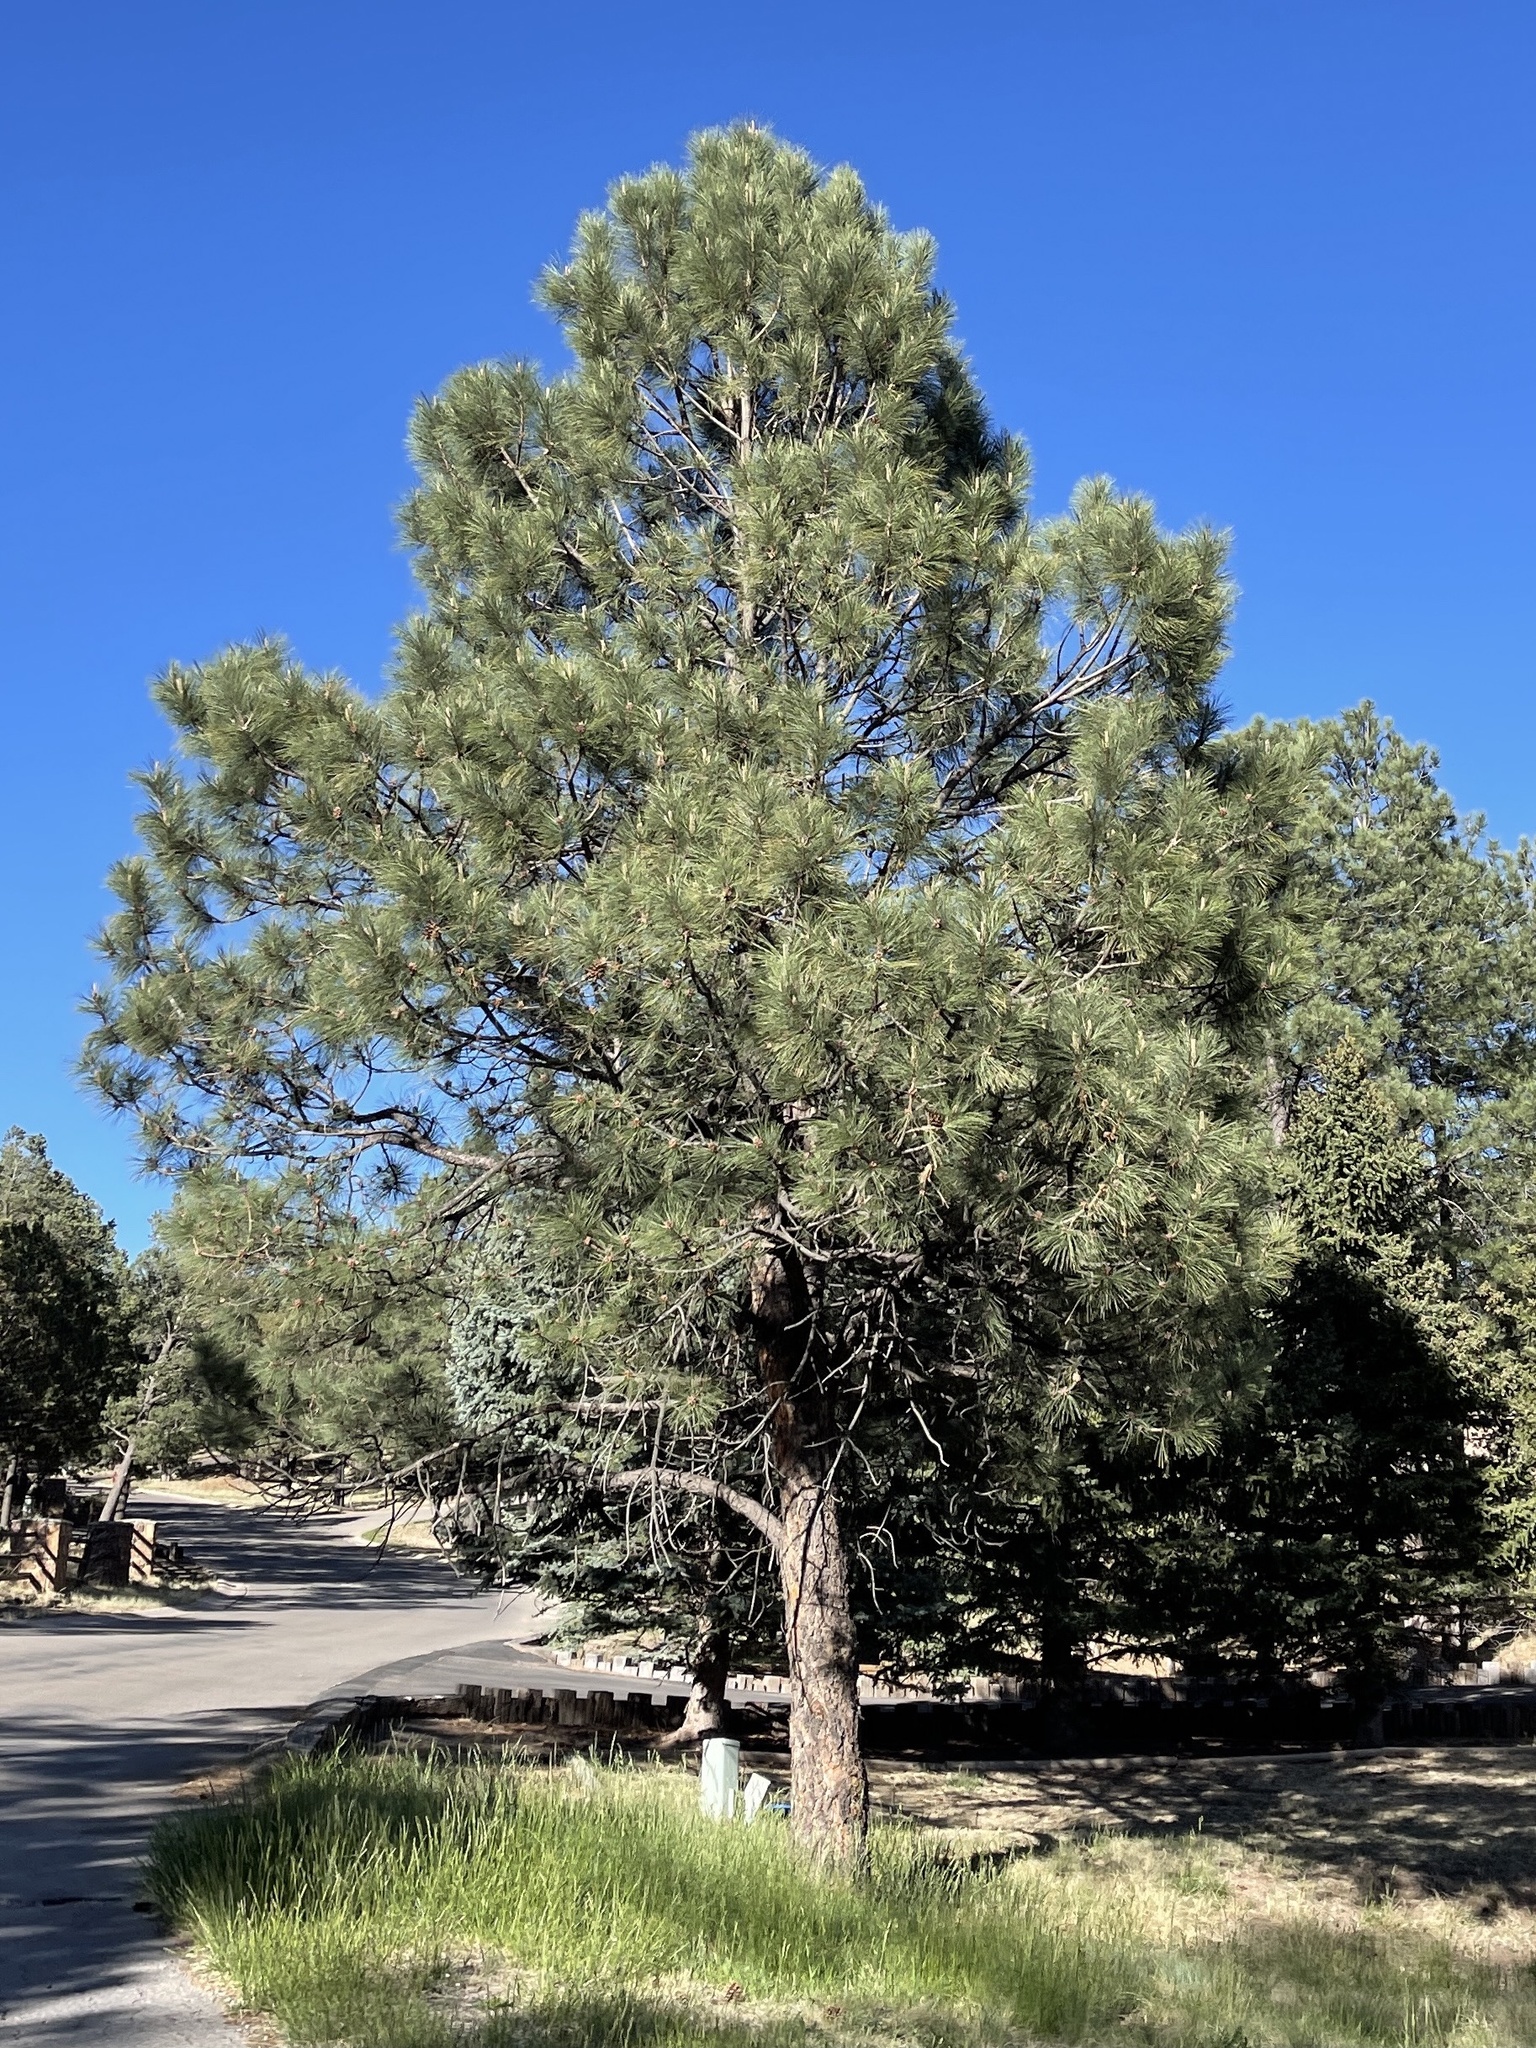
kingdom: Plantae
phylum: Tracheophyta
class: Pinopsida
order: Pinales
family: Pinaceae
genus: Pinus
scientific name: Pinus ponderosa
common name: Western yellow-pine
